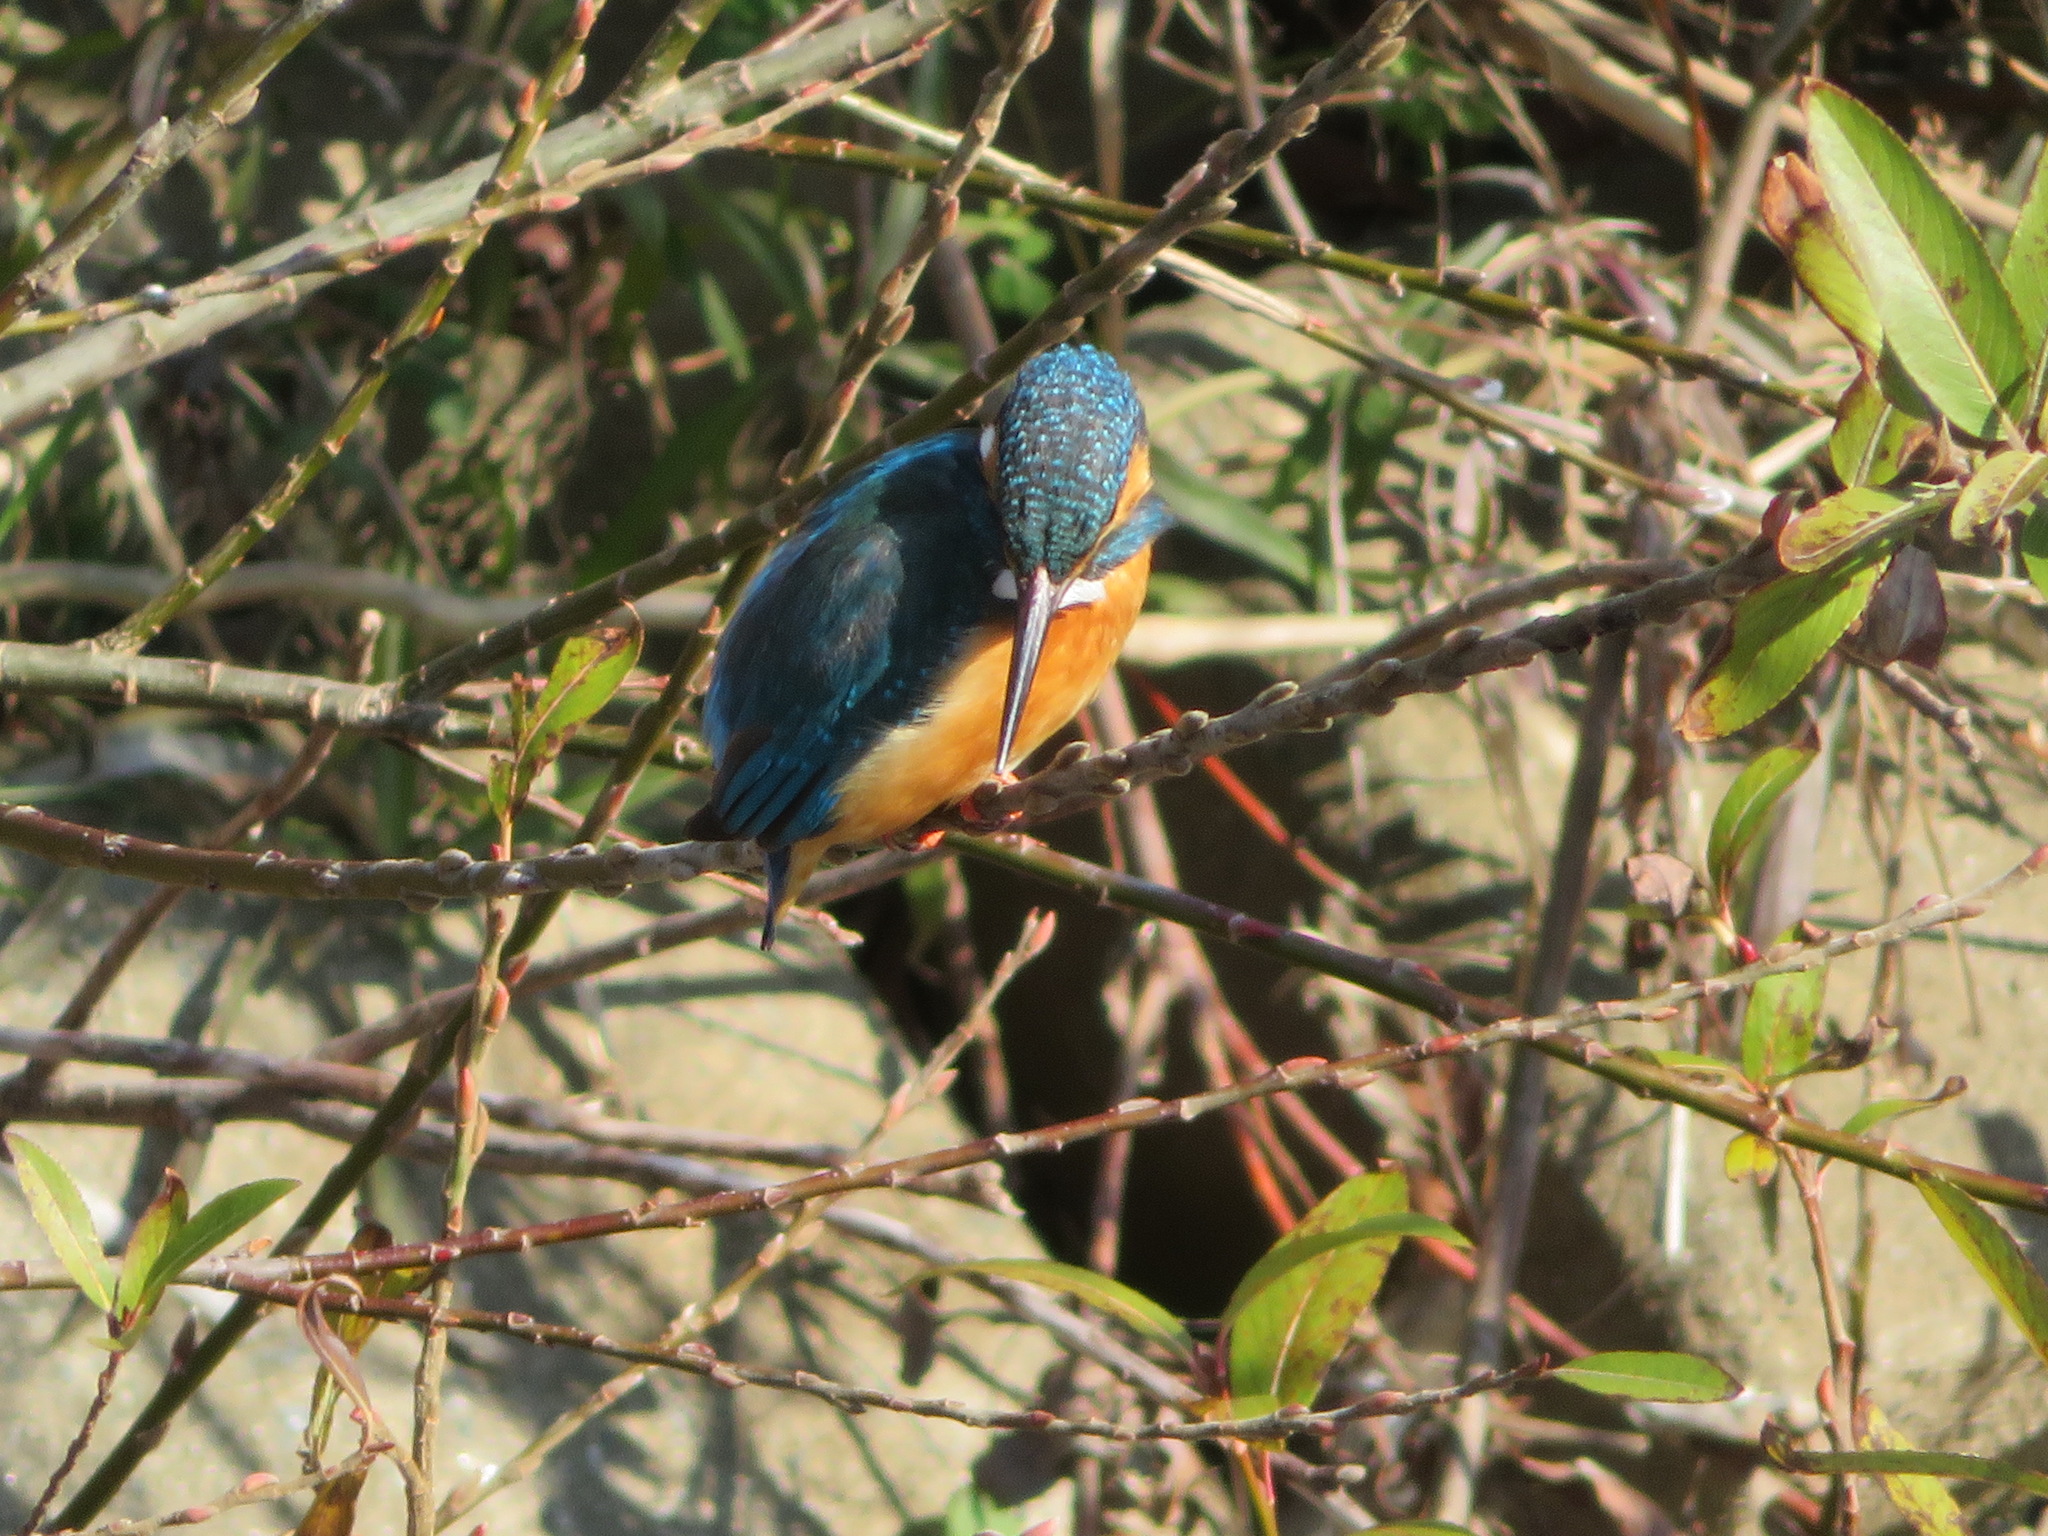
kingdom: Animalia
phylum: Chordata
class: Aves
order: Coraciiformes
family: Alcedinidae
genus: Alcedo
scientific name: Alcedo atthis
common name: Common kingfisher
